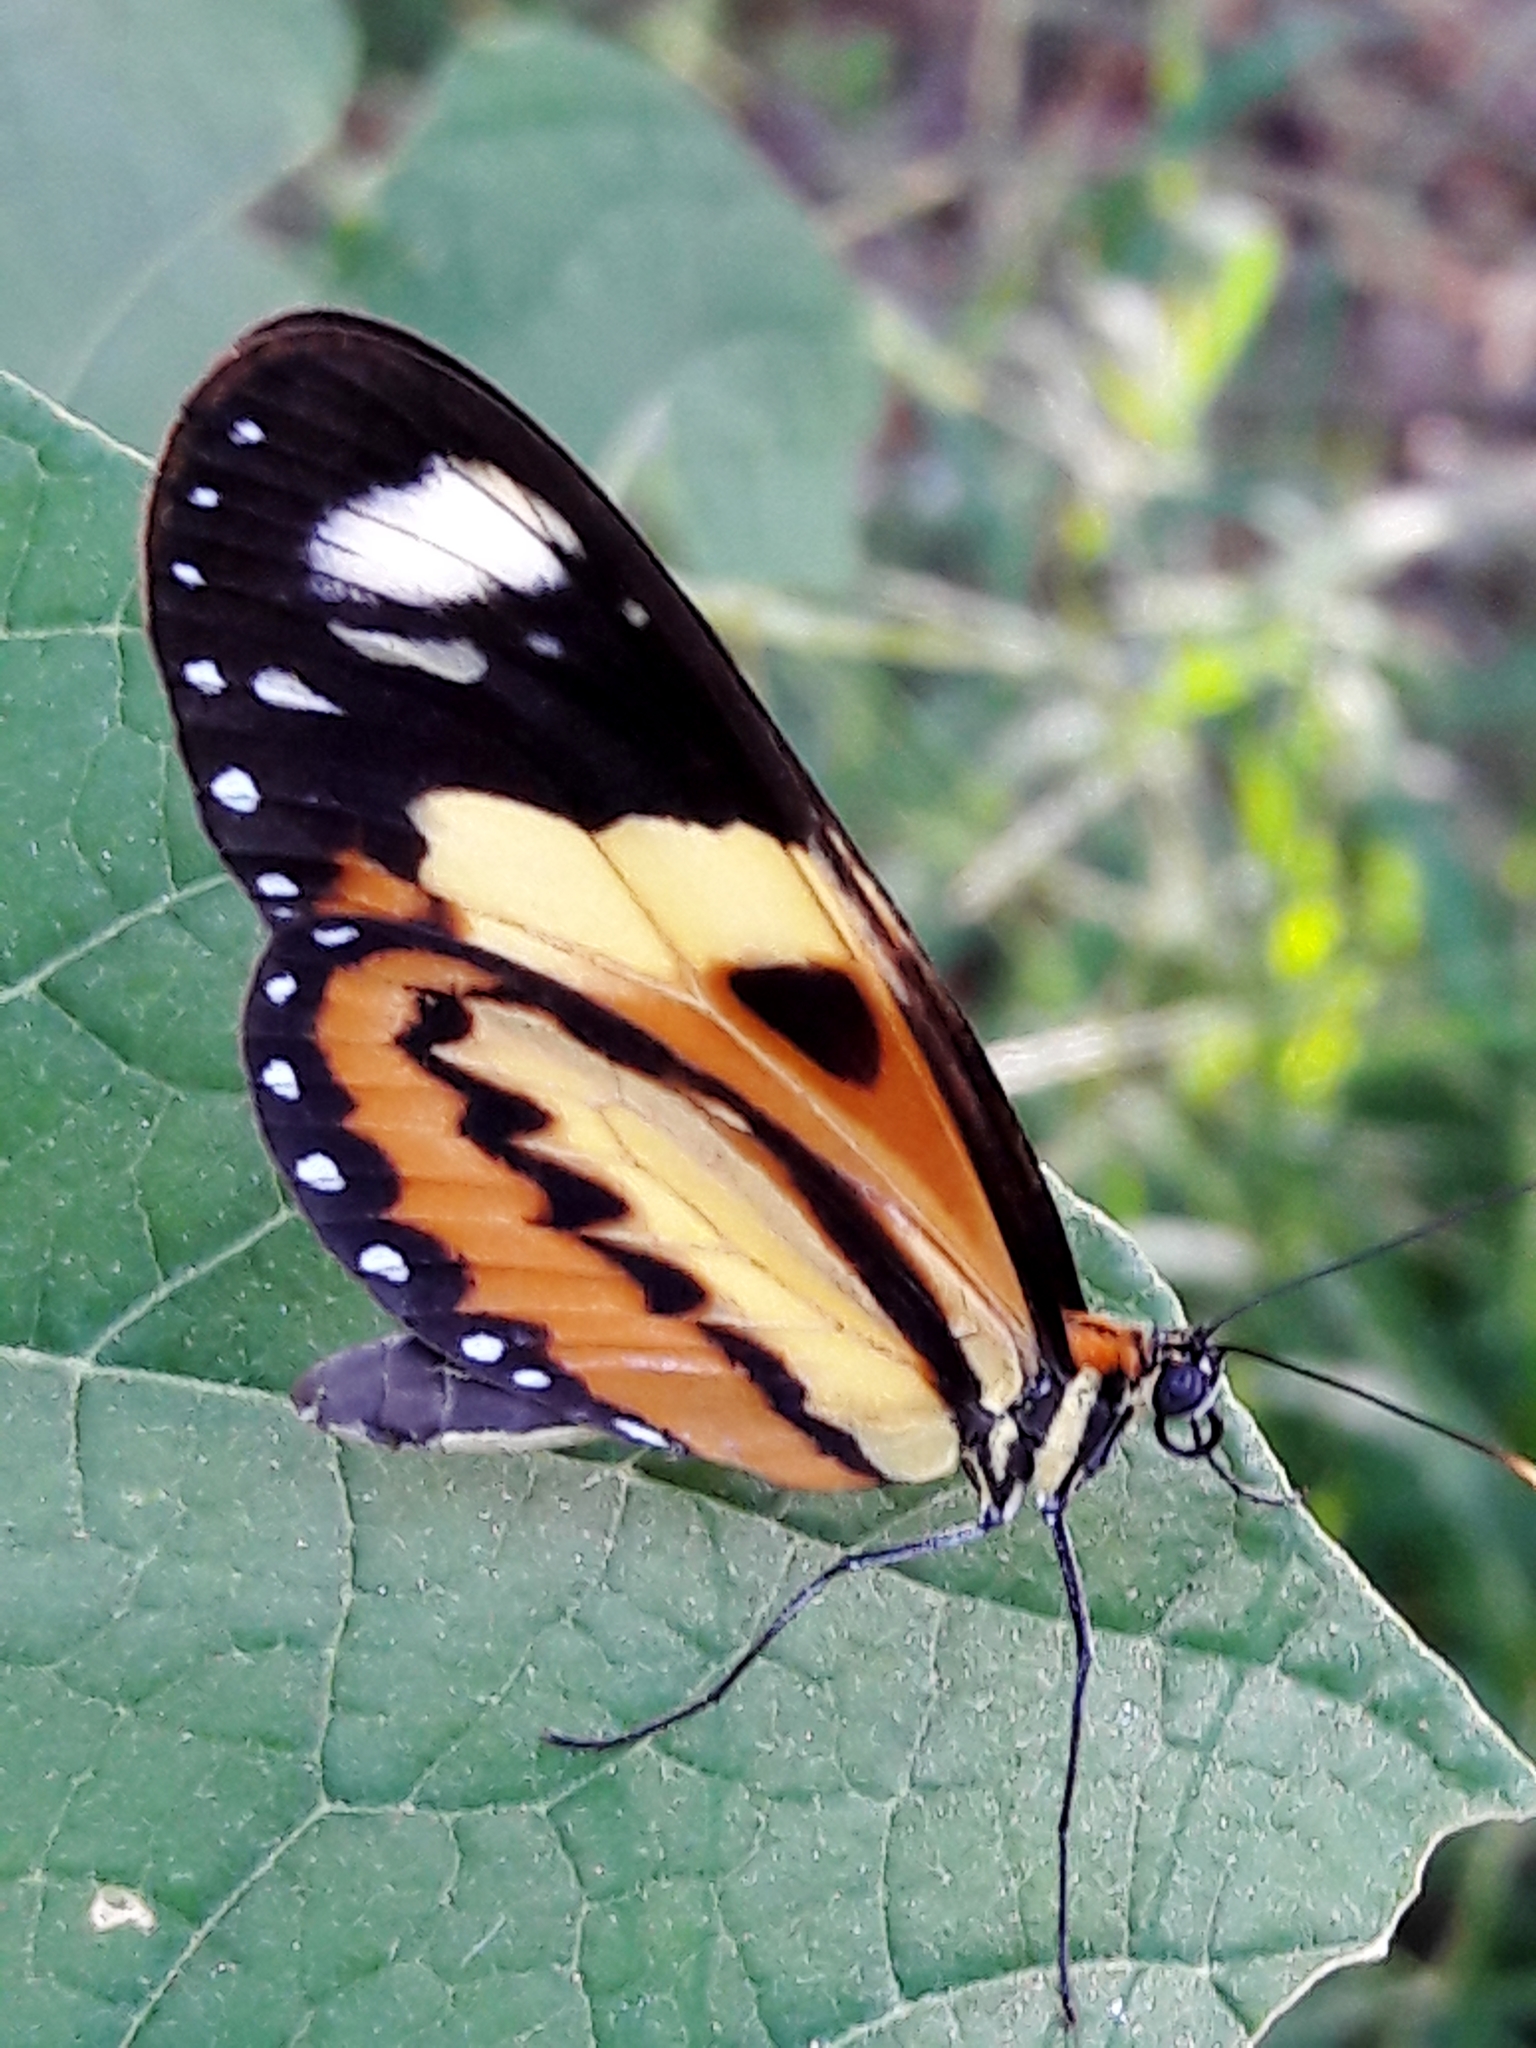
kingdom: Animalia
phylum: Arthropoda
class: Insecta
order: Lepidoptera
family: Nymphalidae
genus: Mechanitis
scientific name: Mechanitis lysimnia
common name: Lysimnia tigerwing
